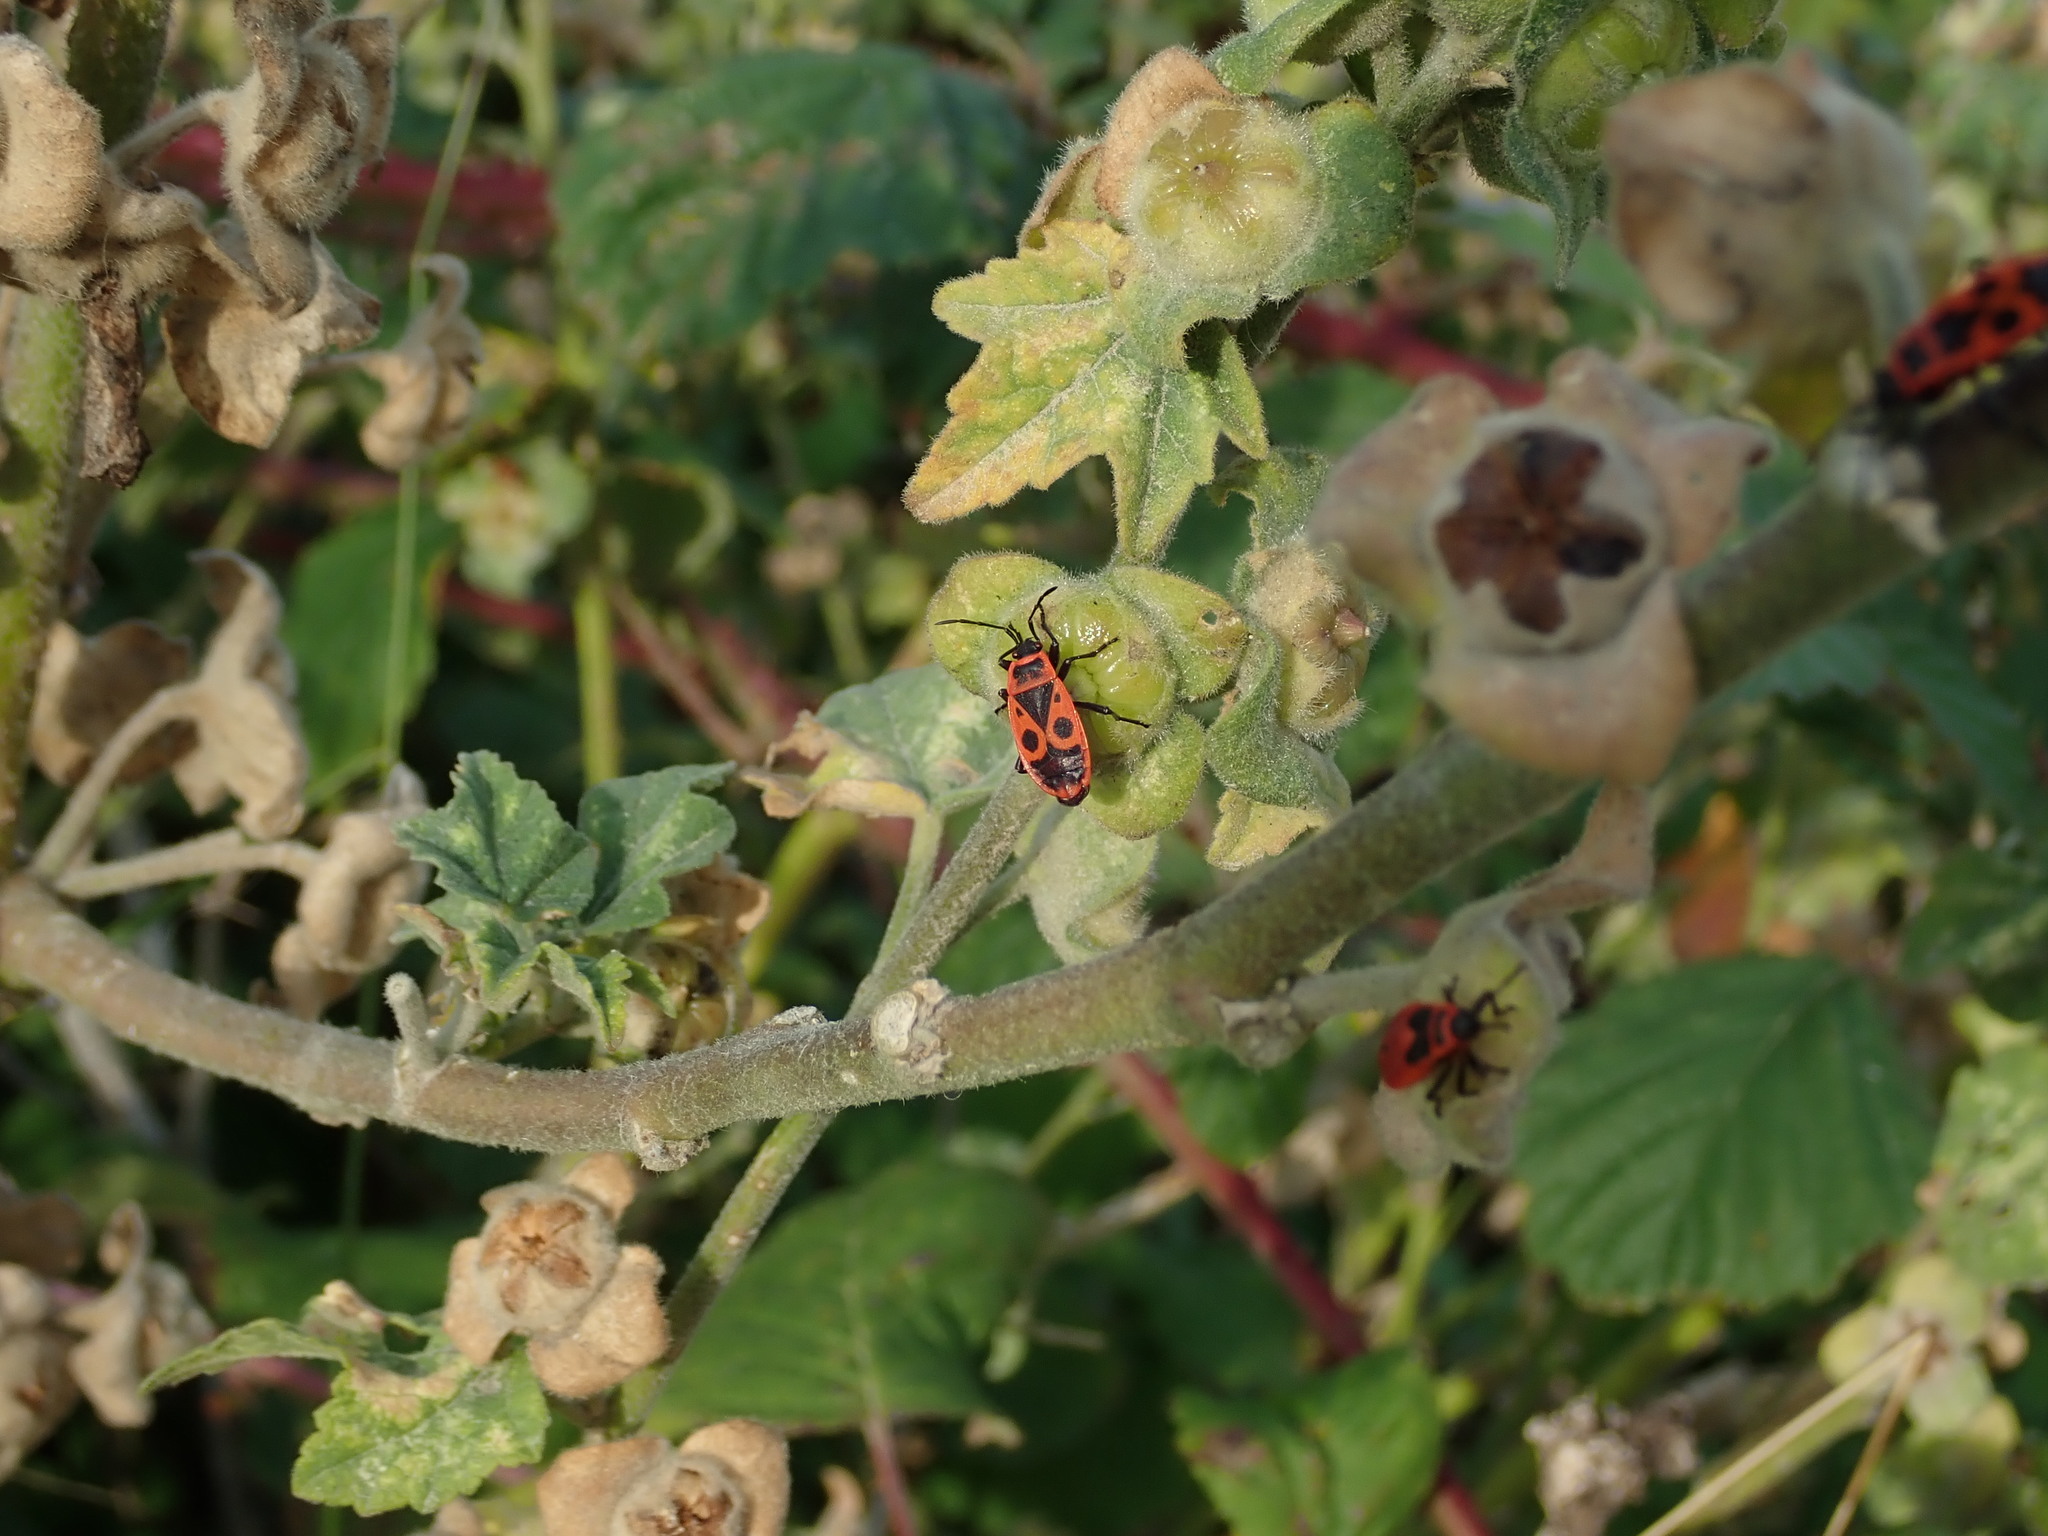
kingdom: Animalia
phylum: Arthropoda
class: Insecta
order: Hemiptera
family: Pyrrhocoridae
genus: Pyrrhocoris
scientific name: Pyrrhocoris apterus
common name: Firebug
